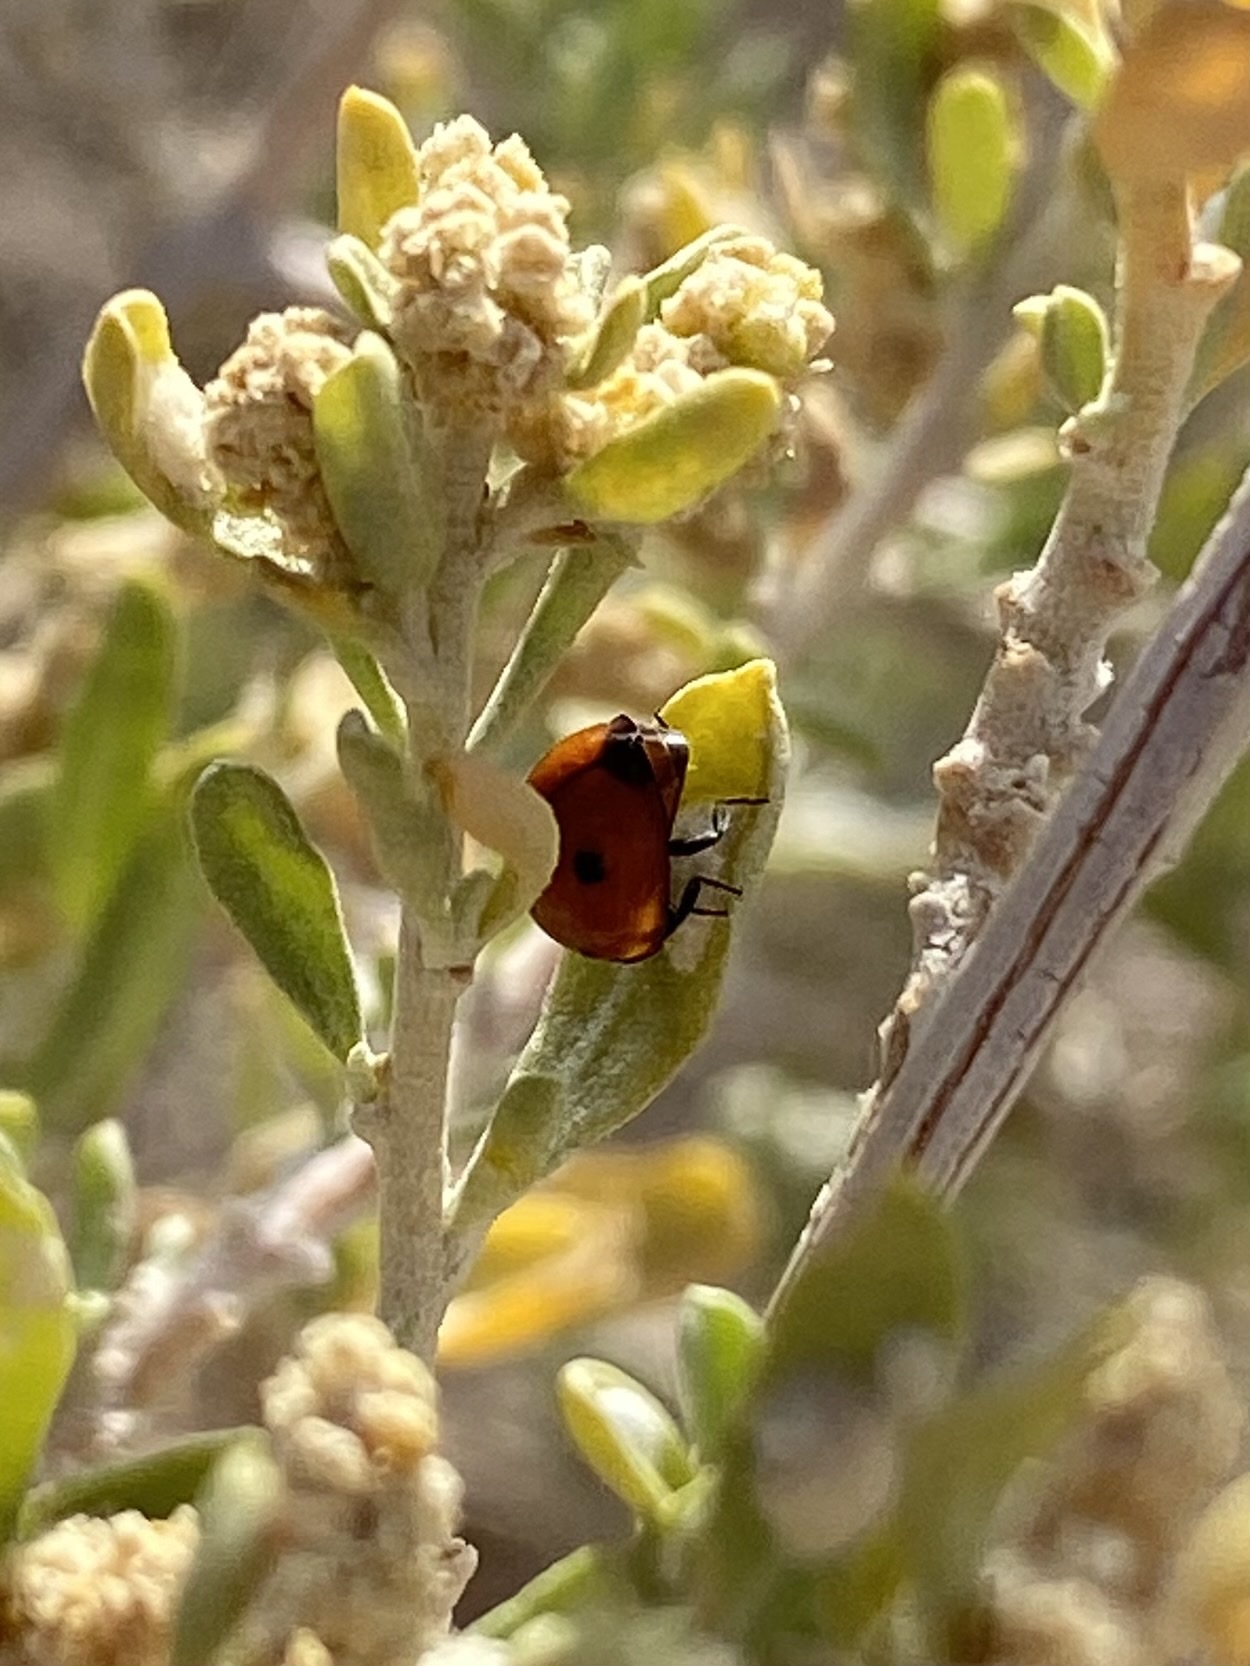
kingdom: Animalia
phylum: Arthropoda
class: Insecta
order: Coleoptera
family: Coccinellidae
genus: Coccinella
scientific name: Coccinella septempunctata
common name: Sevenspotted lady beetle
